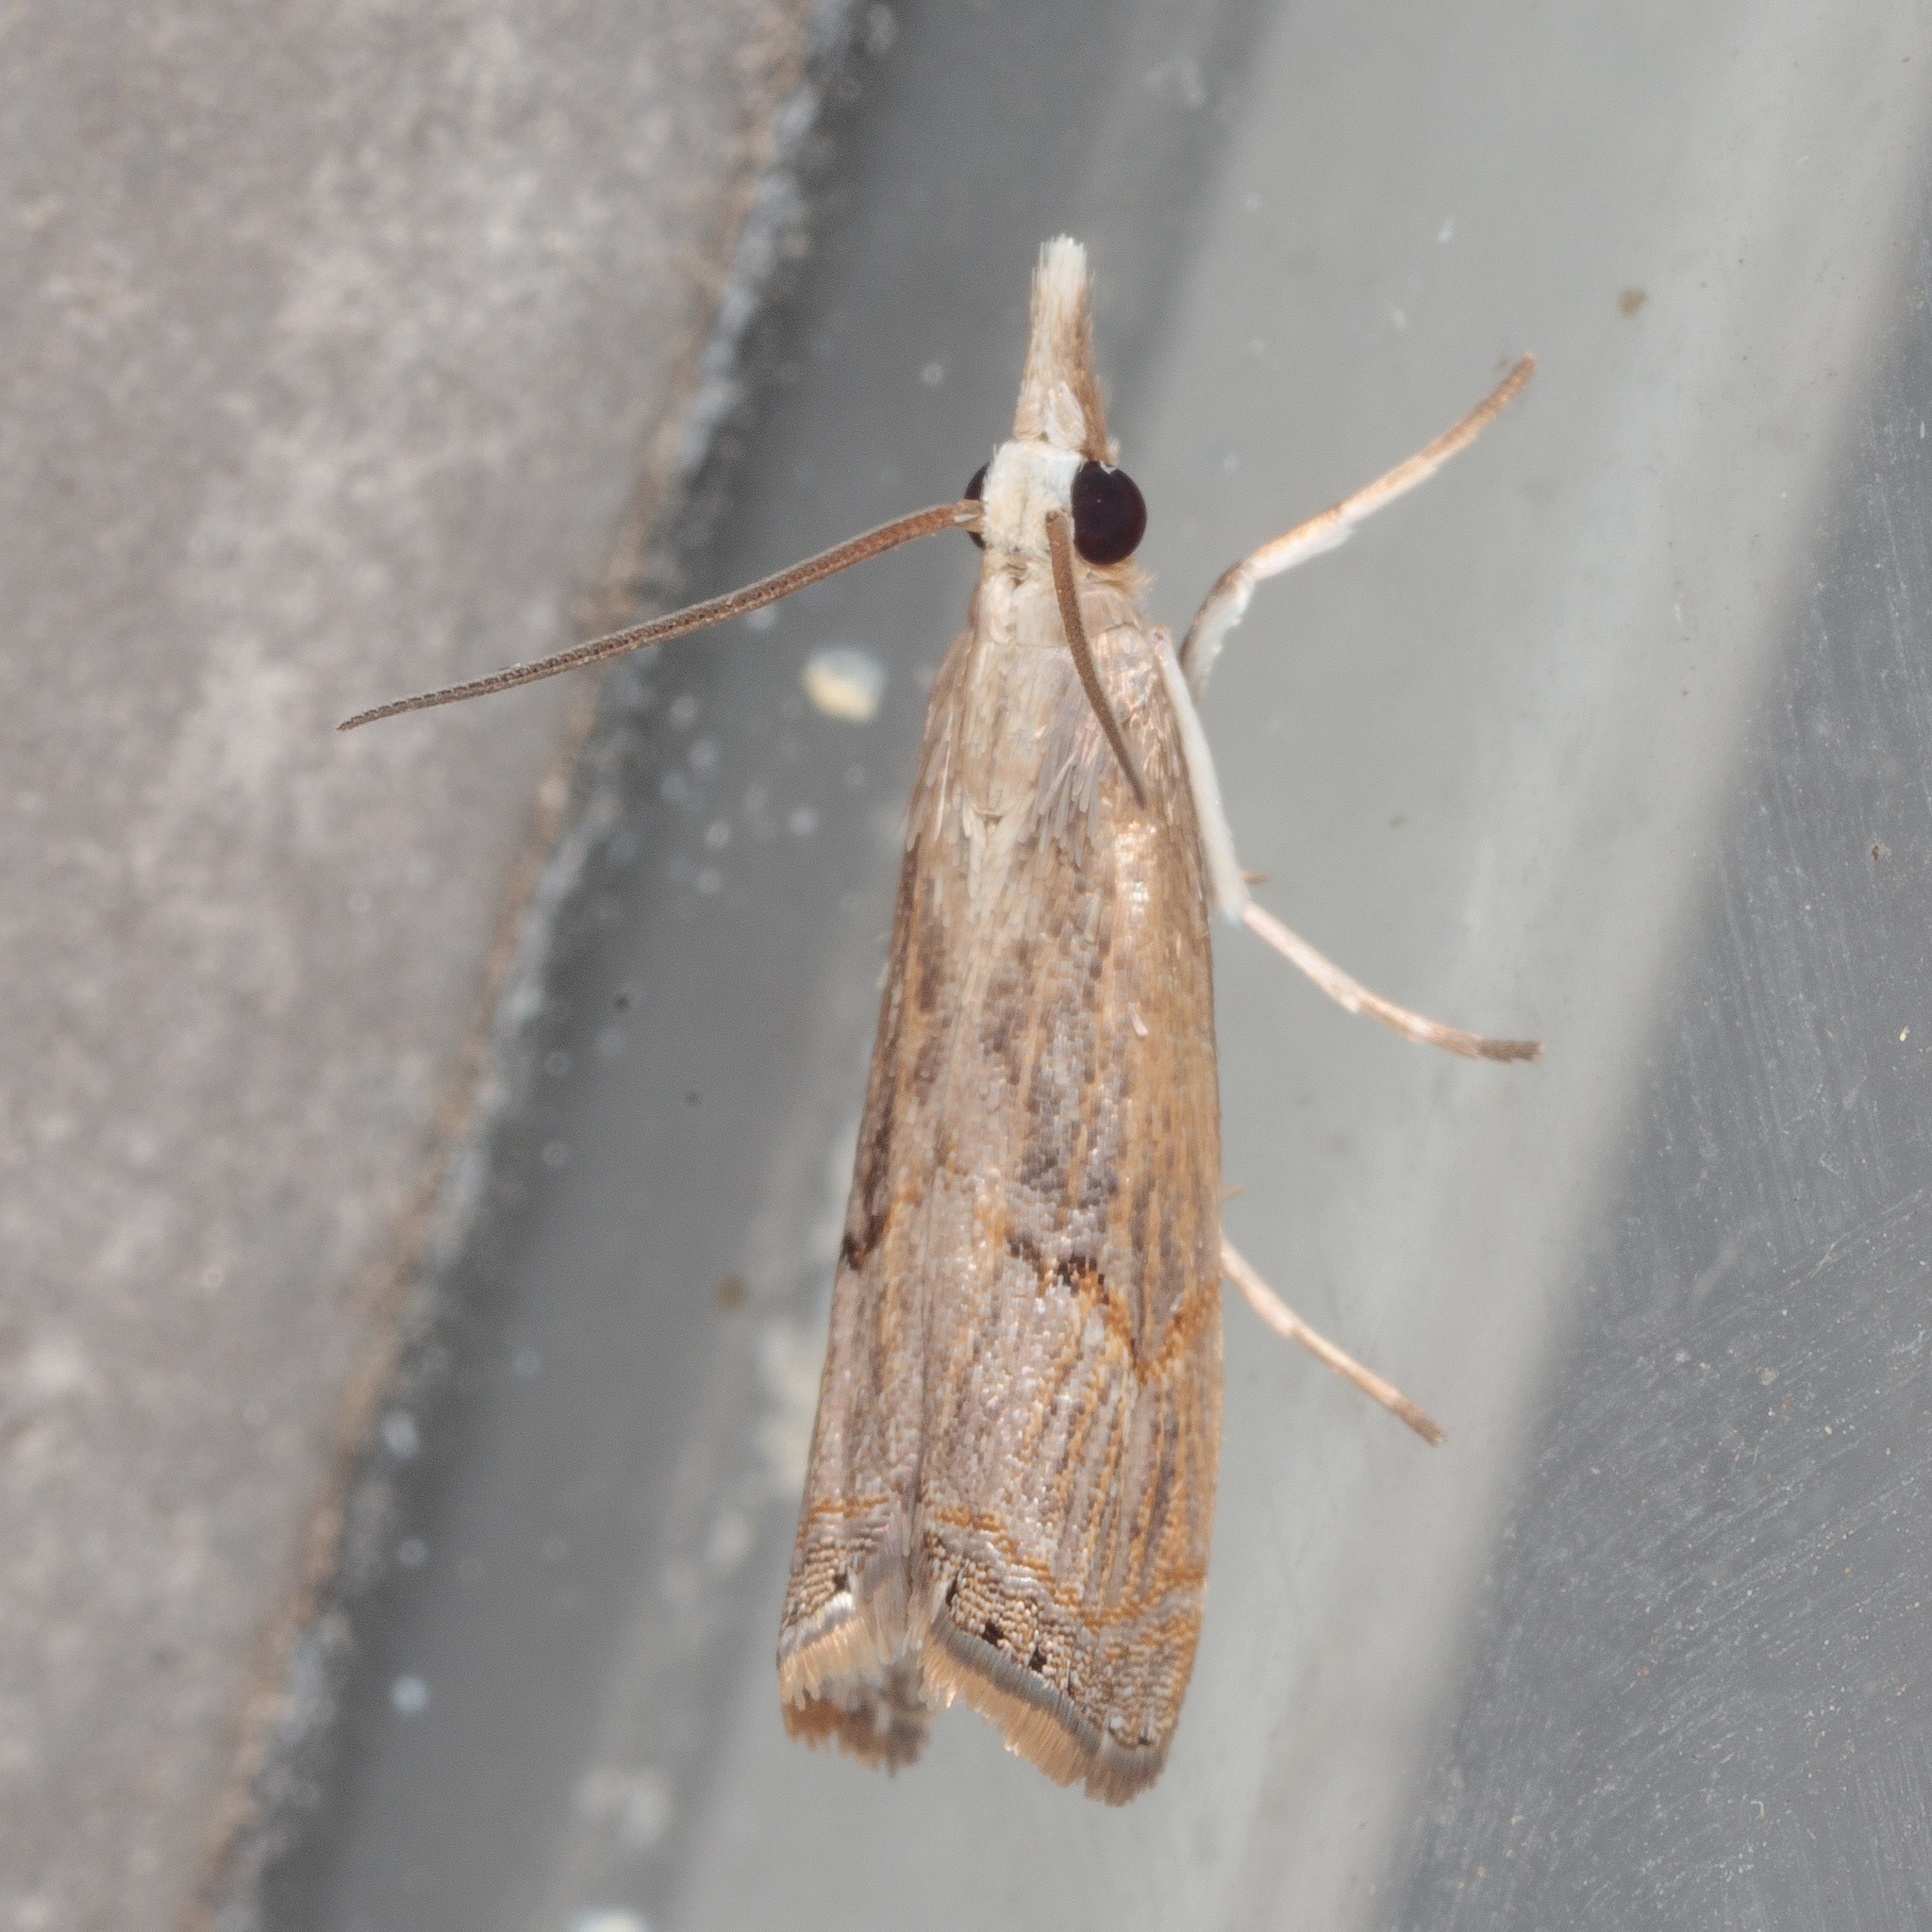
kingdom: Animalia
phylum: Arthropoda
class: Insecta
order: Lepidoptera
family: Crambidae
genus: Parapediasia
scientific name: Parapediasia teterellus
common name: Bluegrass webworm moth
